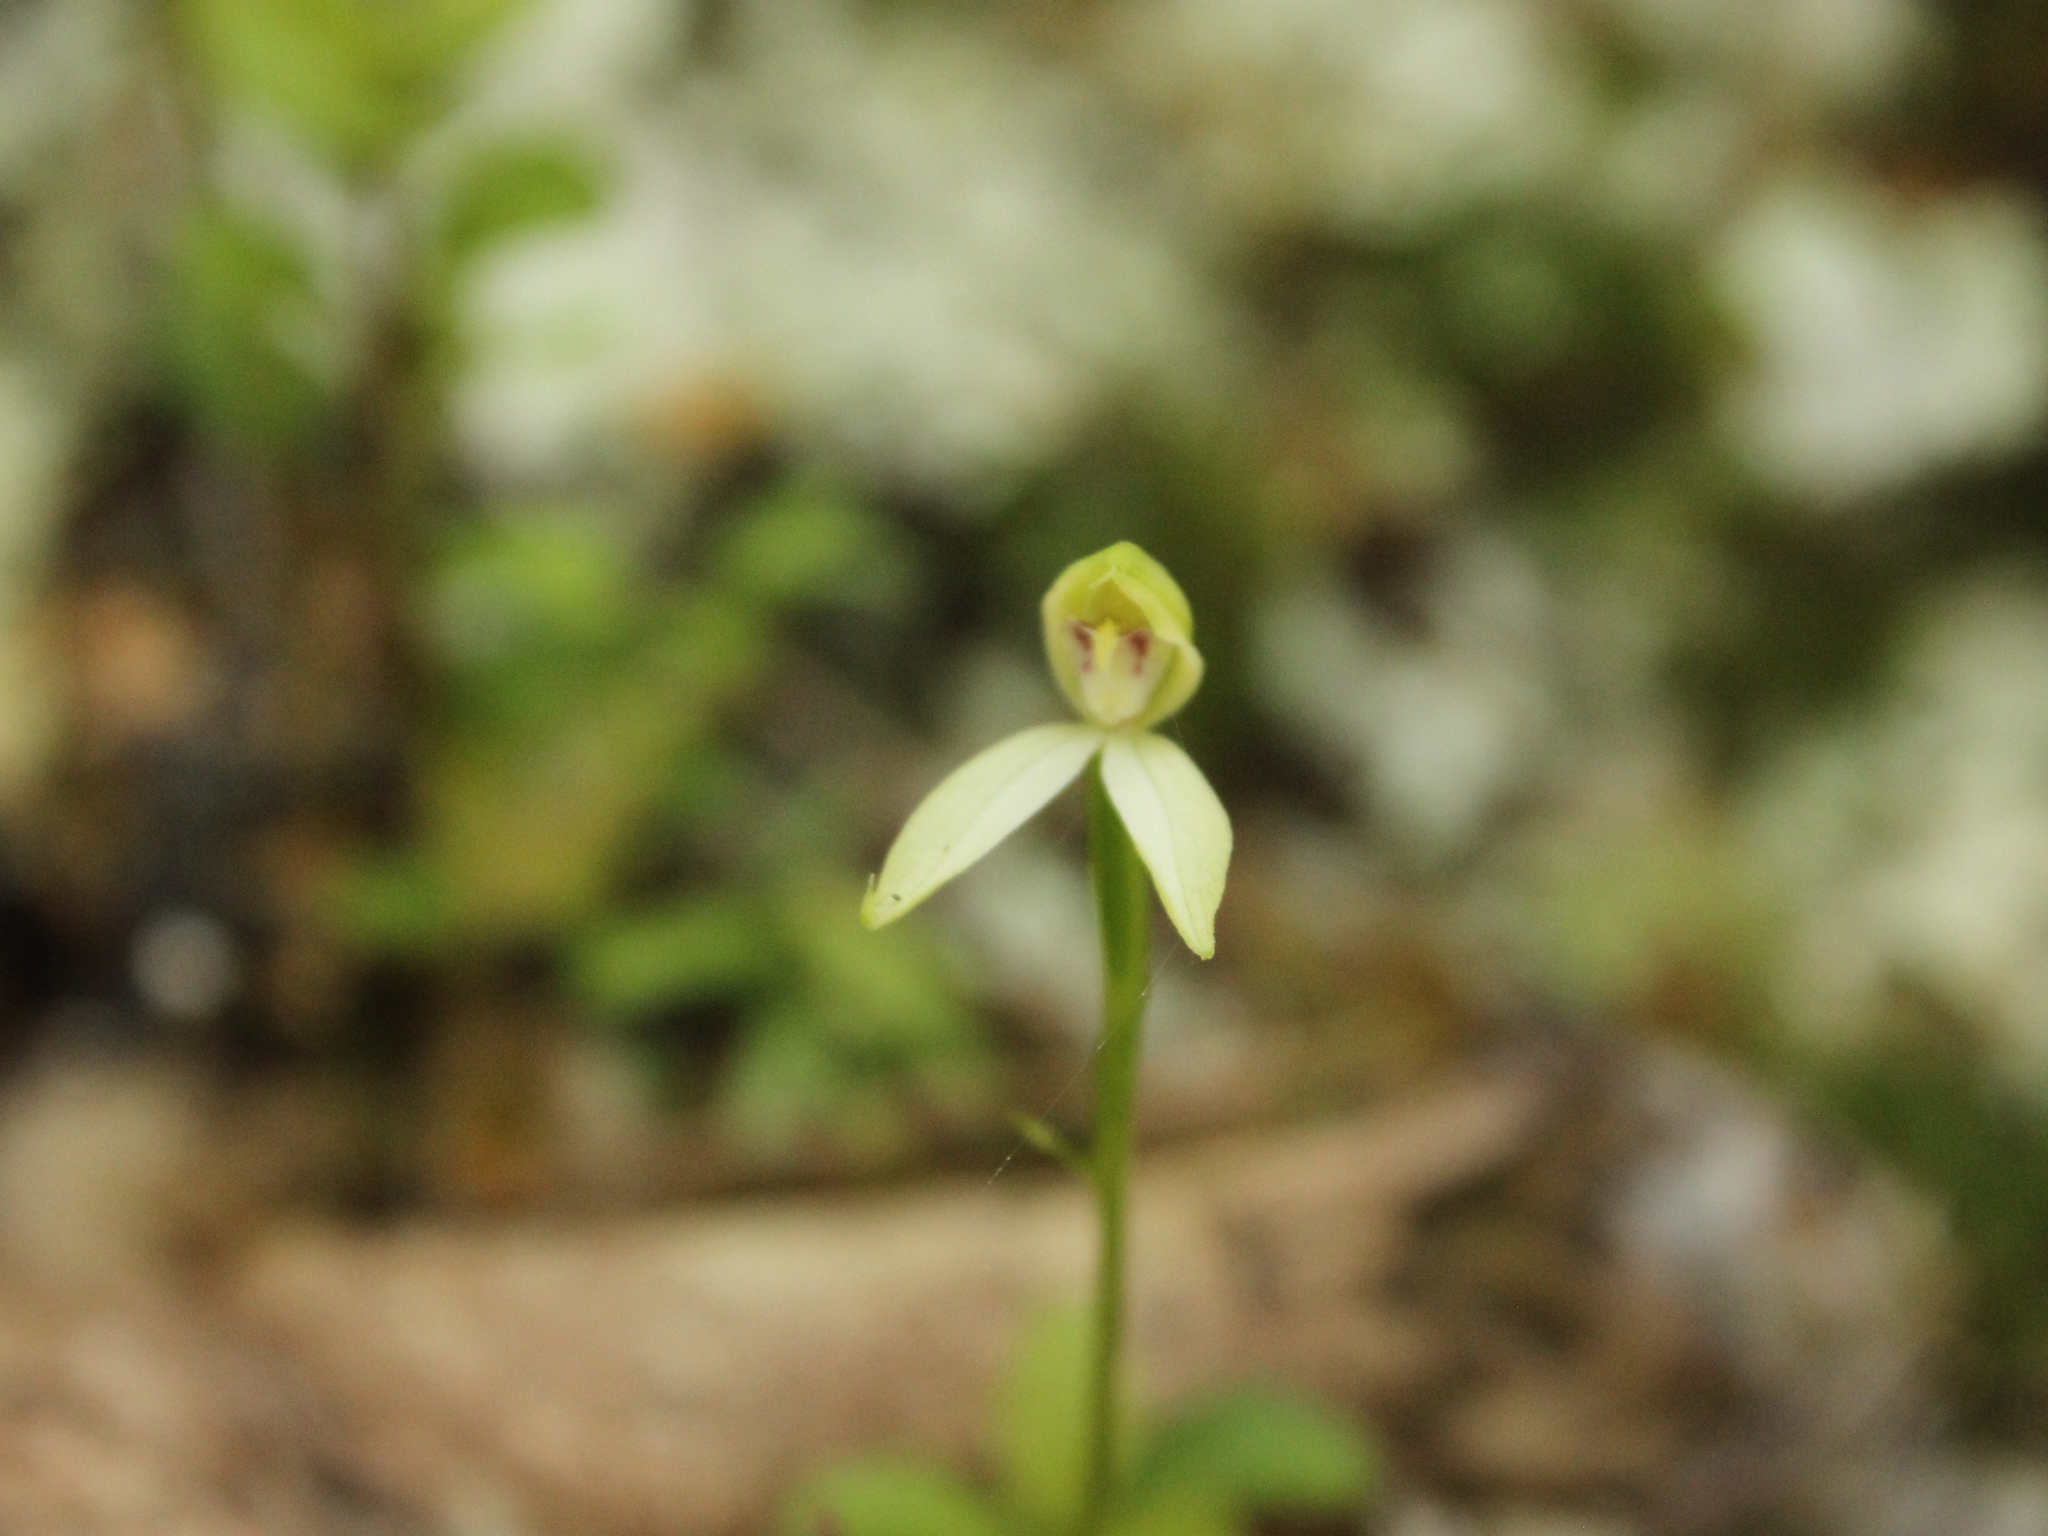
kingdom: Plantae
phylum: Tracheophyta
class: Liliopsida
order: Asparagales
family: Orchidaceae
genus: Adenochilus
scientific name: Adenochilus gracilis
